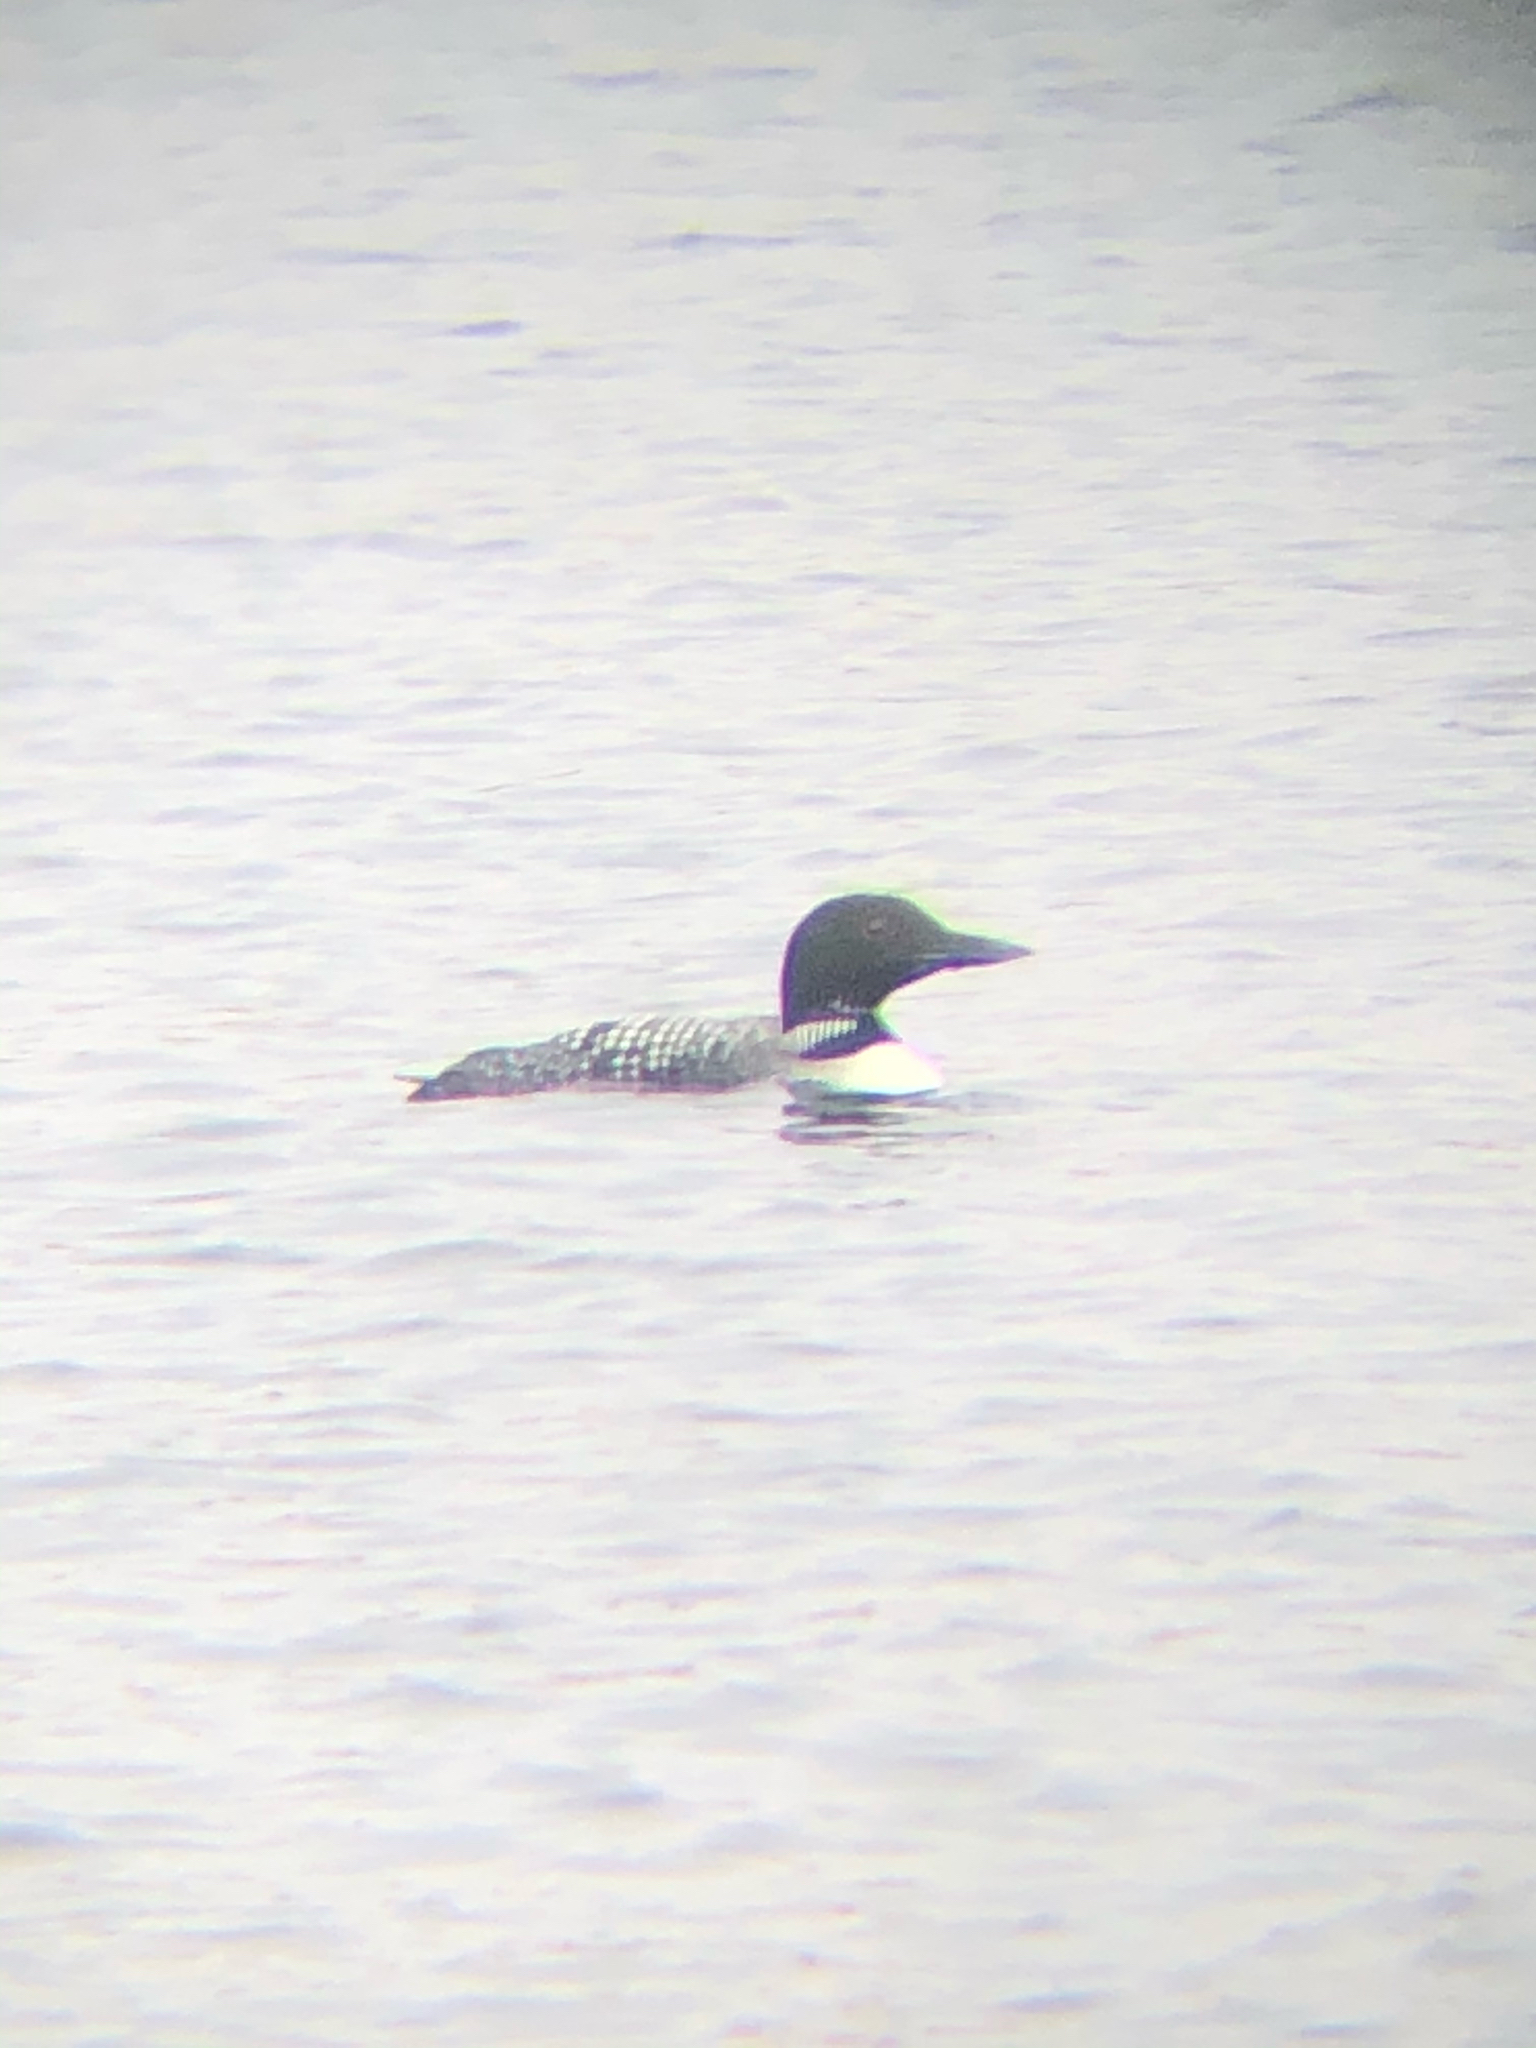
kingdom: Animalia
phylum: Chordata
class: Aves
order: Gaviiformes
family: Gaviidae
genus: Gavia
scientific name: Gavia immer
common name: Common loon
